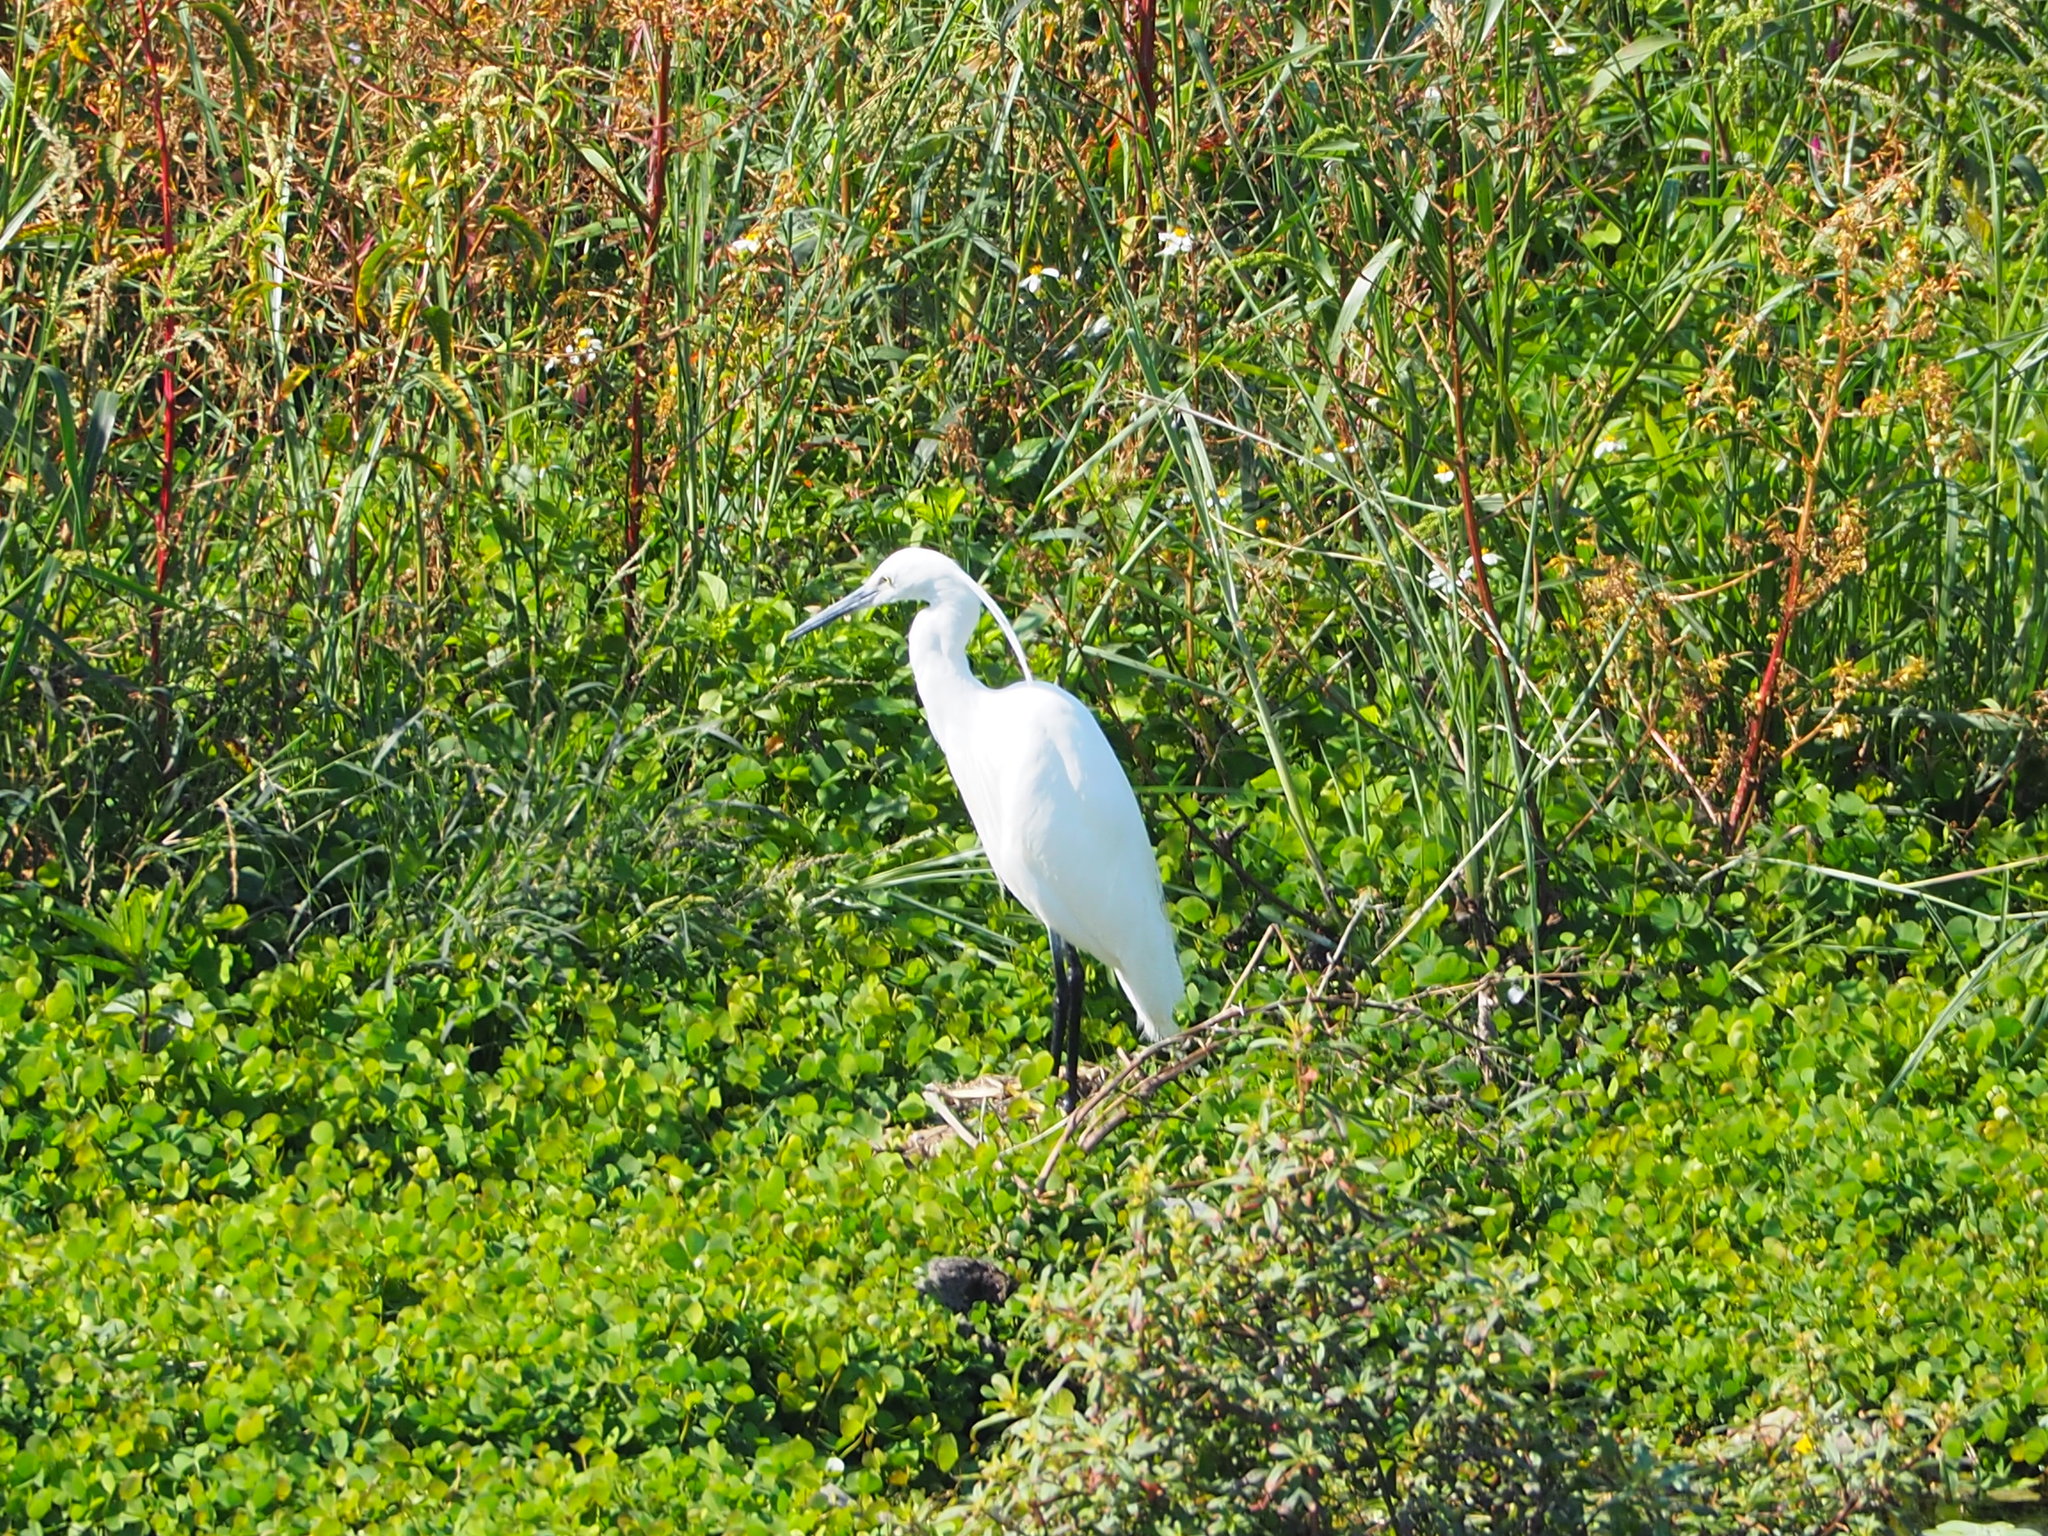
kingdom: Animalia
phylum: Chordata
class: Aves
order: Pelecaniformes
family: Ardeidae
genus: Egretta
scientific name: Egretta garzetta
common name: Little egret
